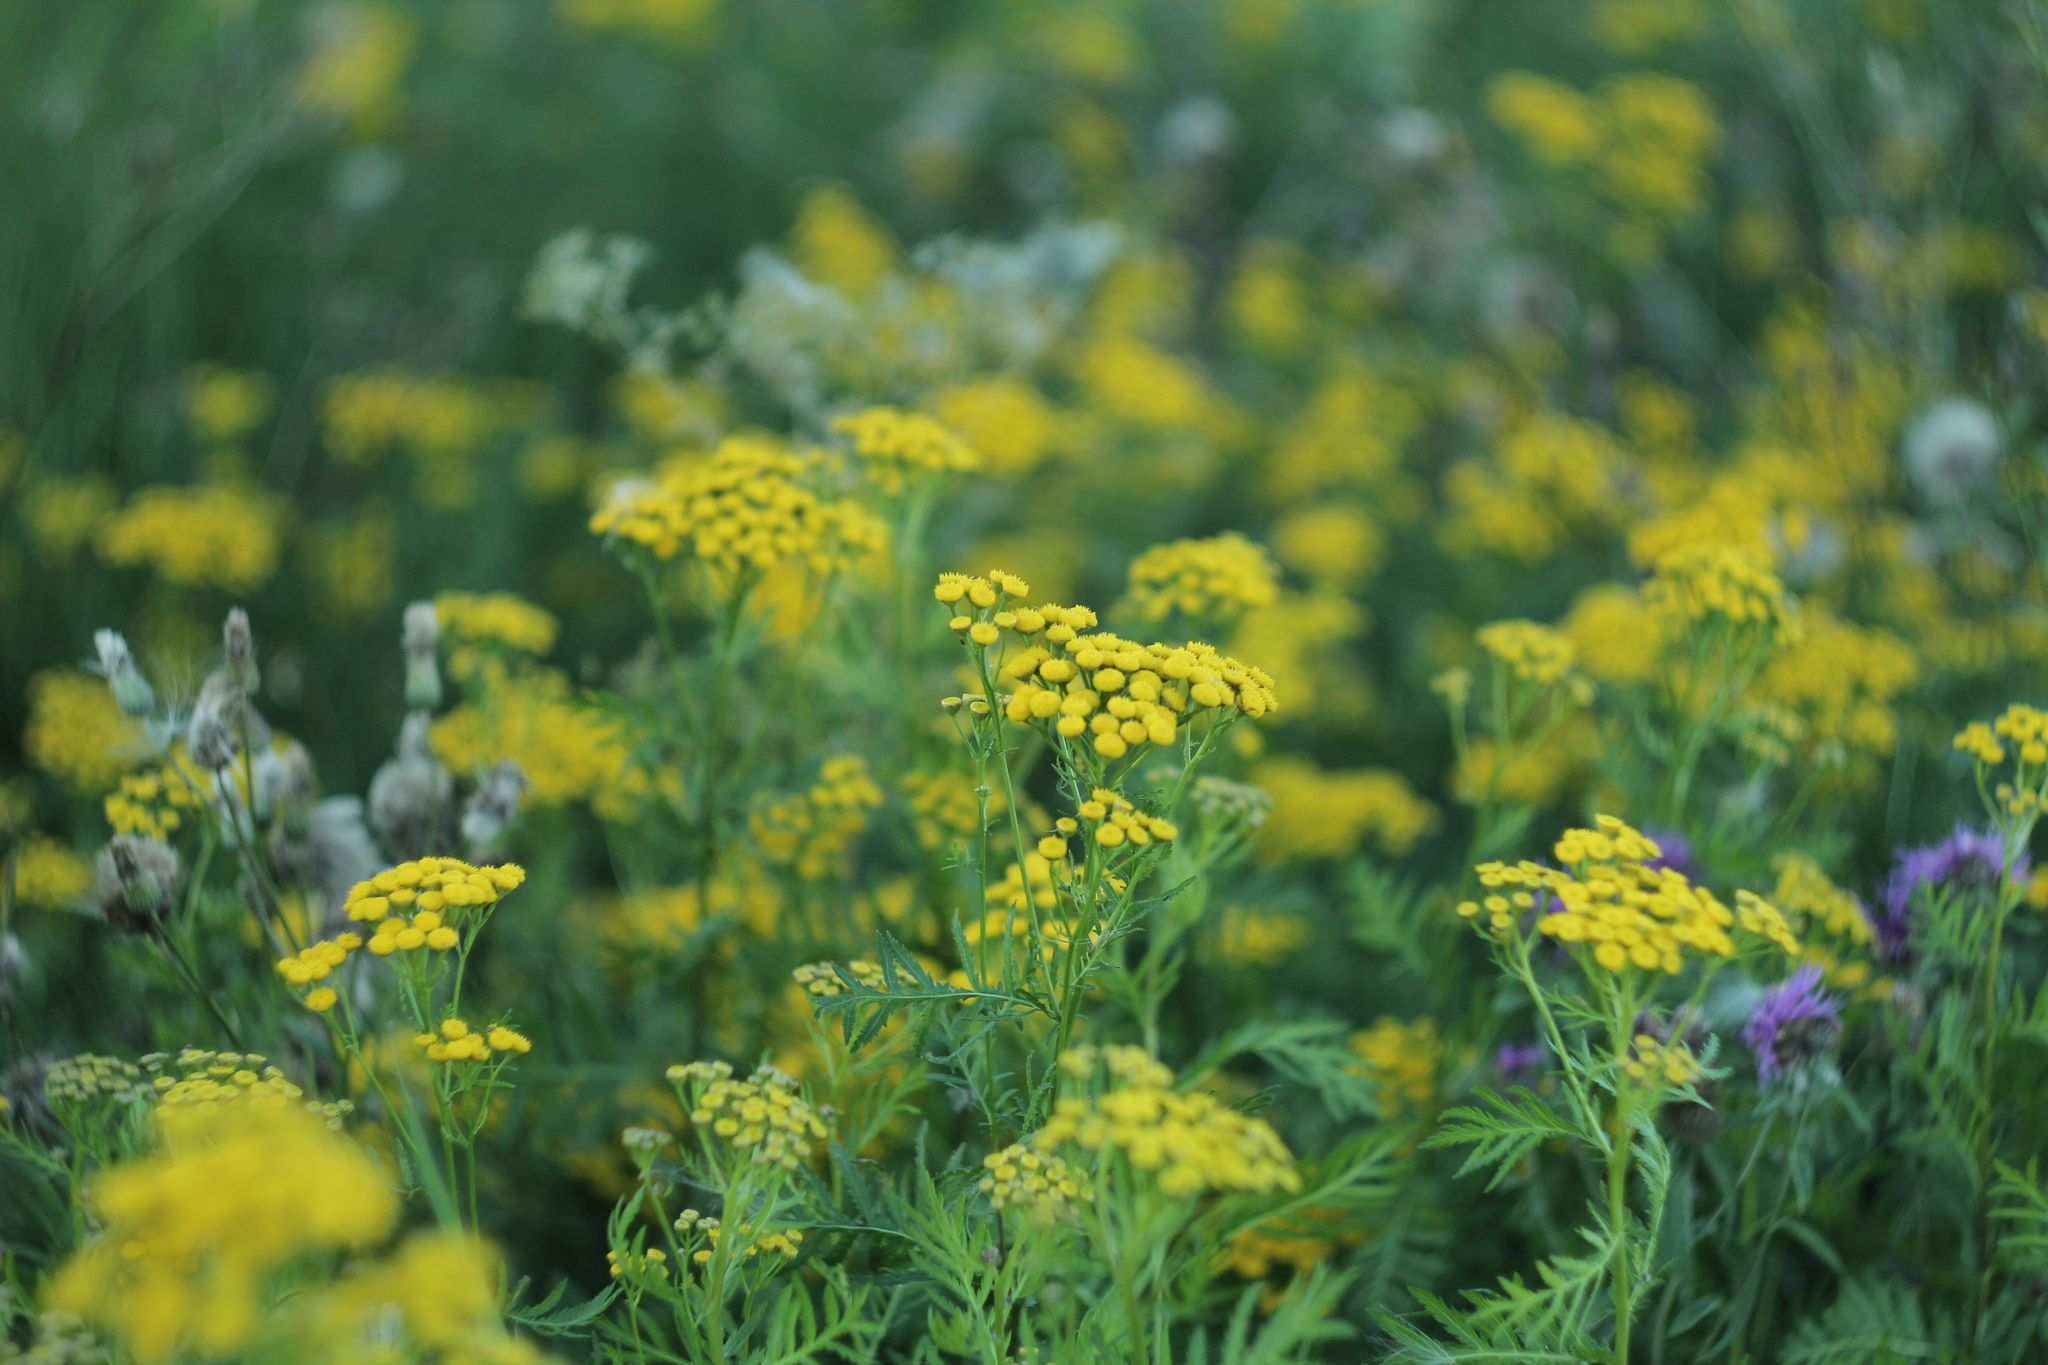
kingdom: Plantae
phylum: Tracheophyta
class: Magnoliopsida
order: Asterales
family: Asteraceae
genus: Tanacetum
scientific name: Tanacetum vulgare
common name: Common tansy
